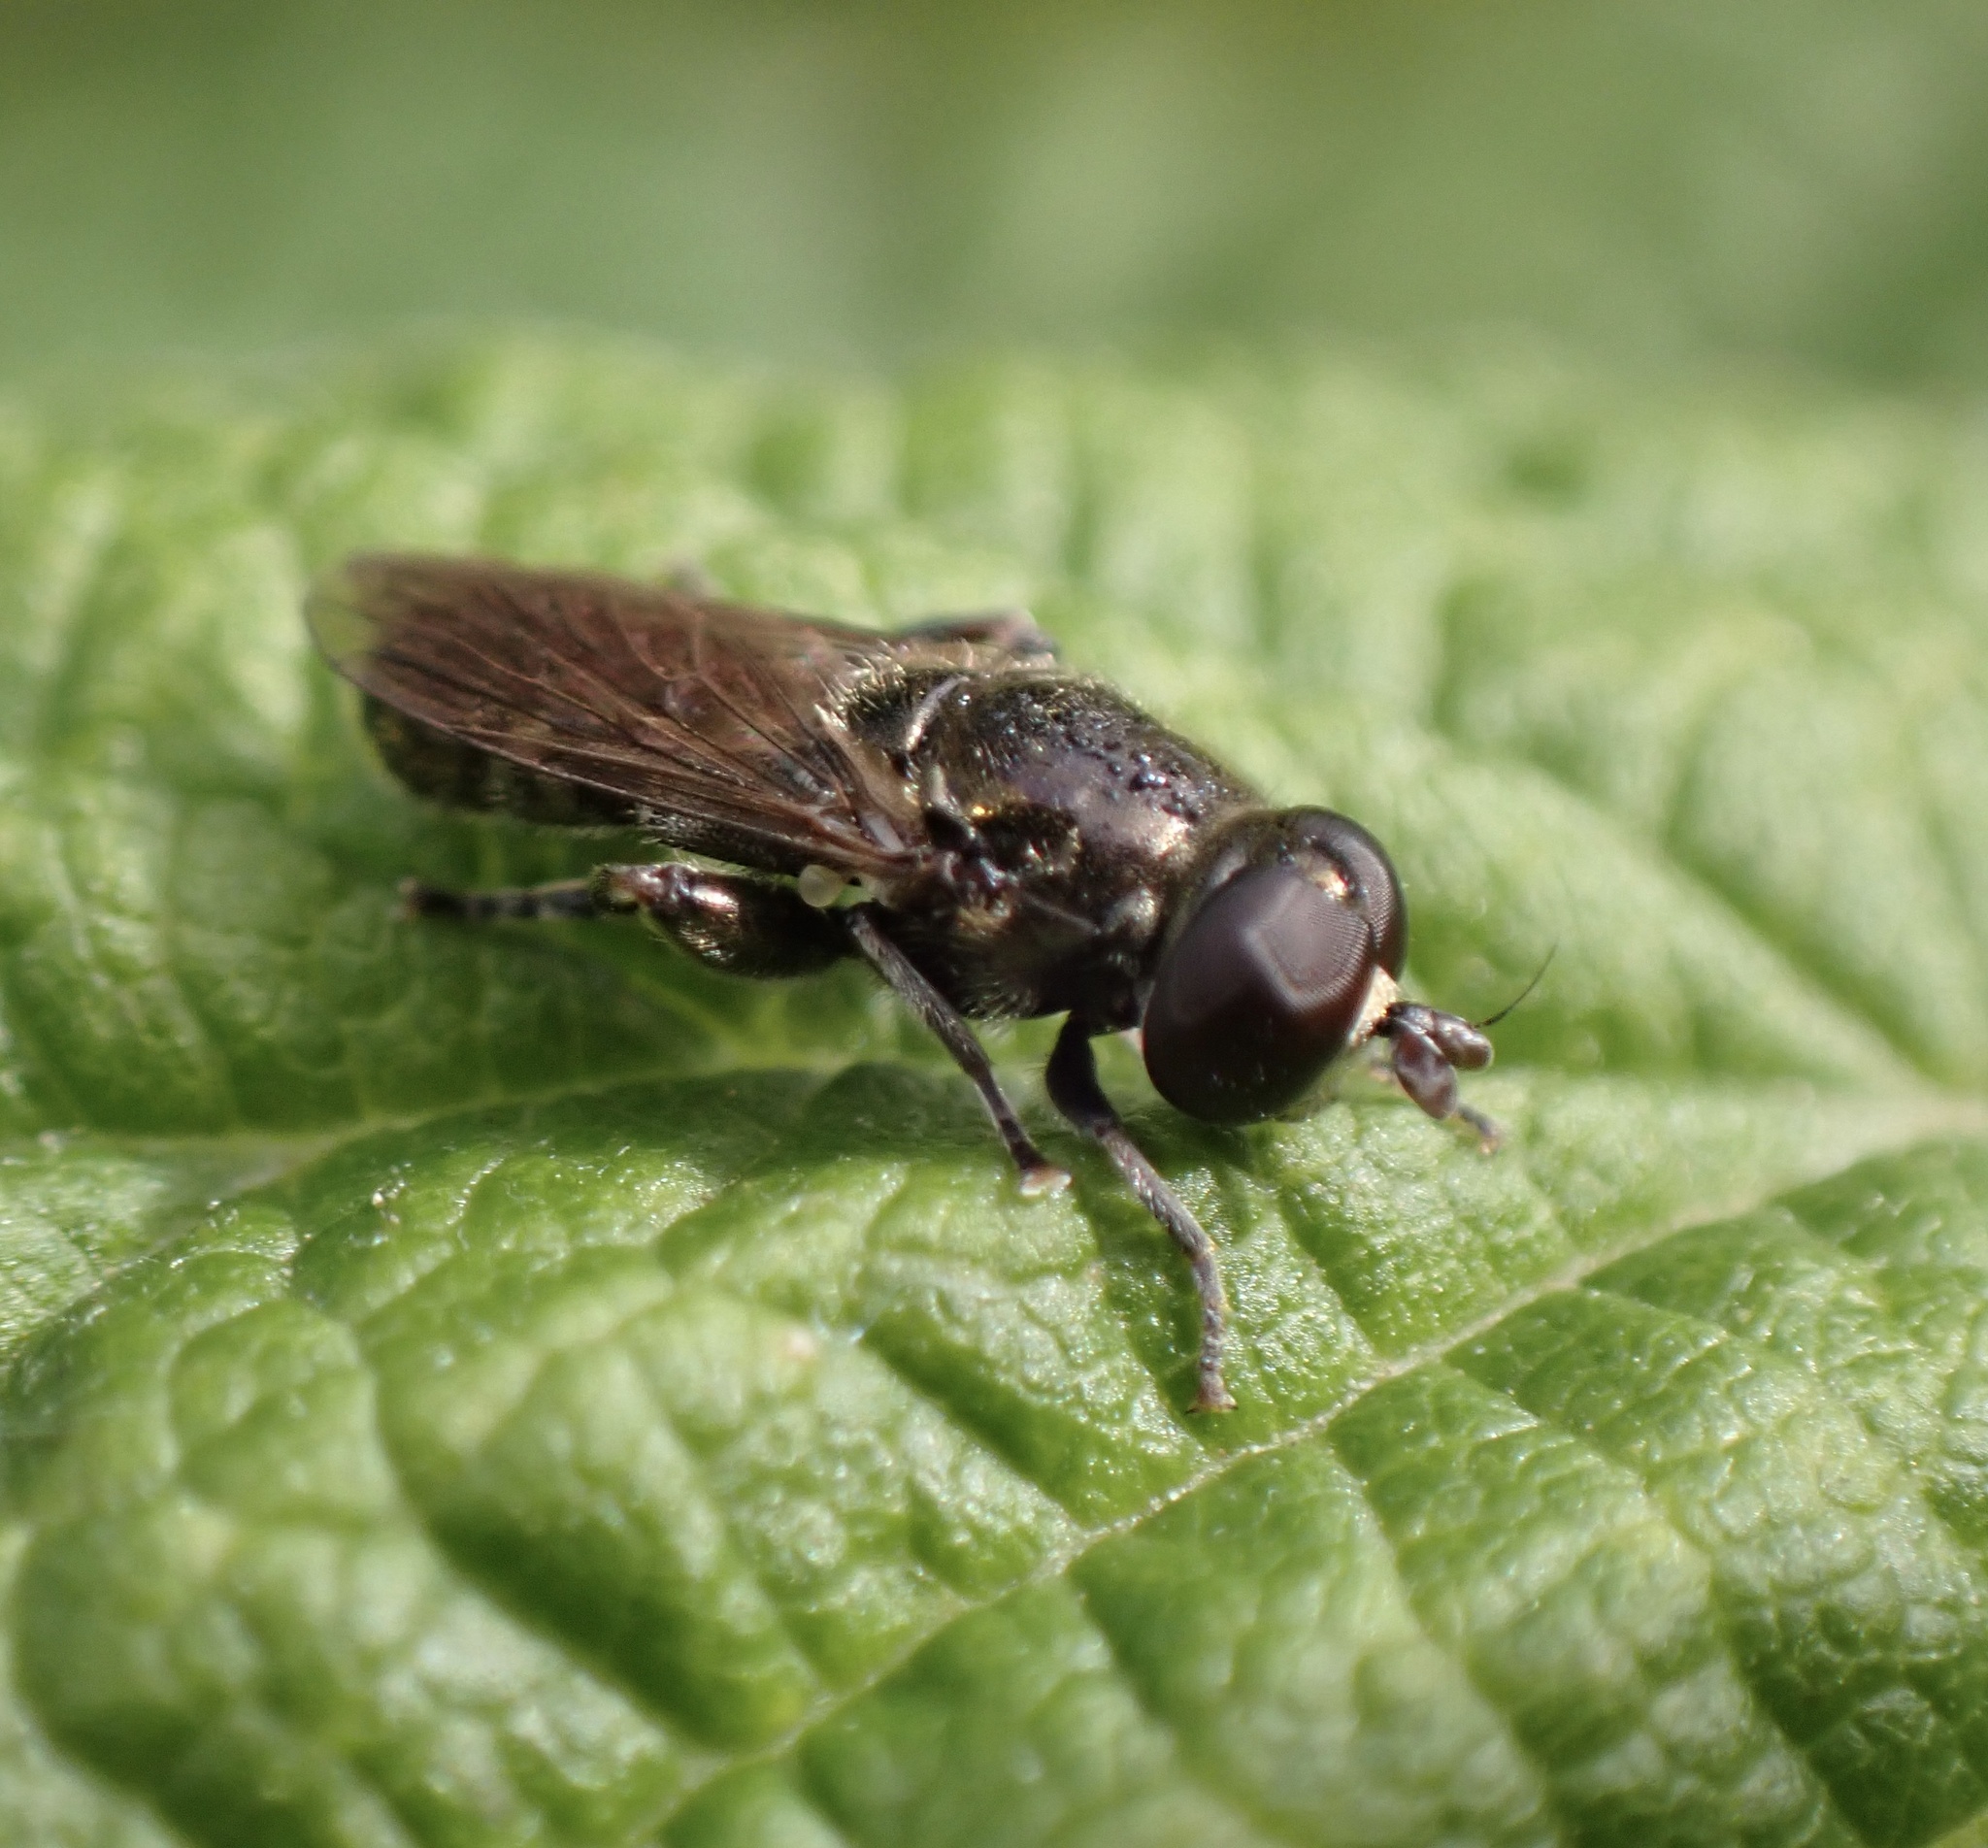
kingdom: Animalia
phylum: Arthropoda
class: Insecta
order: Diptera
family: Syrphidae
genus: Eumerus
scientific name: Eumerus
